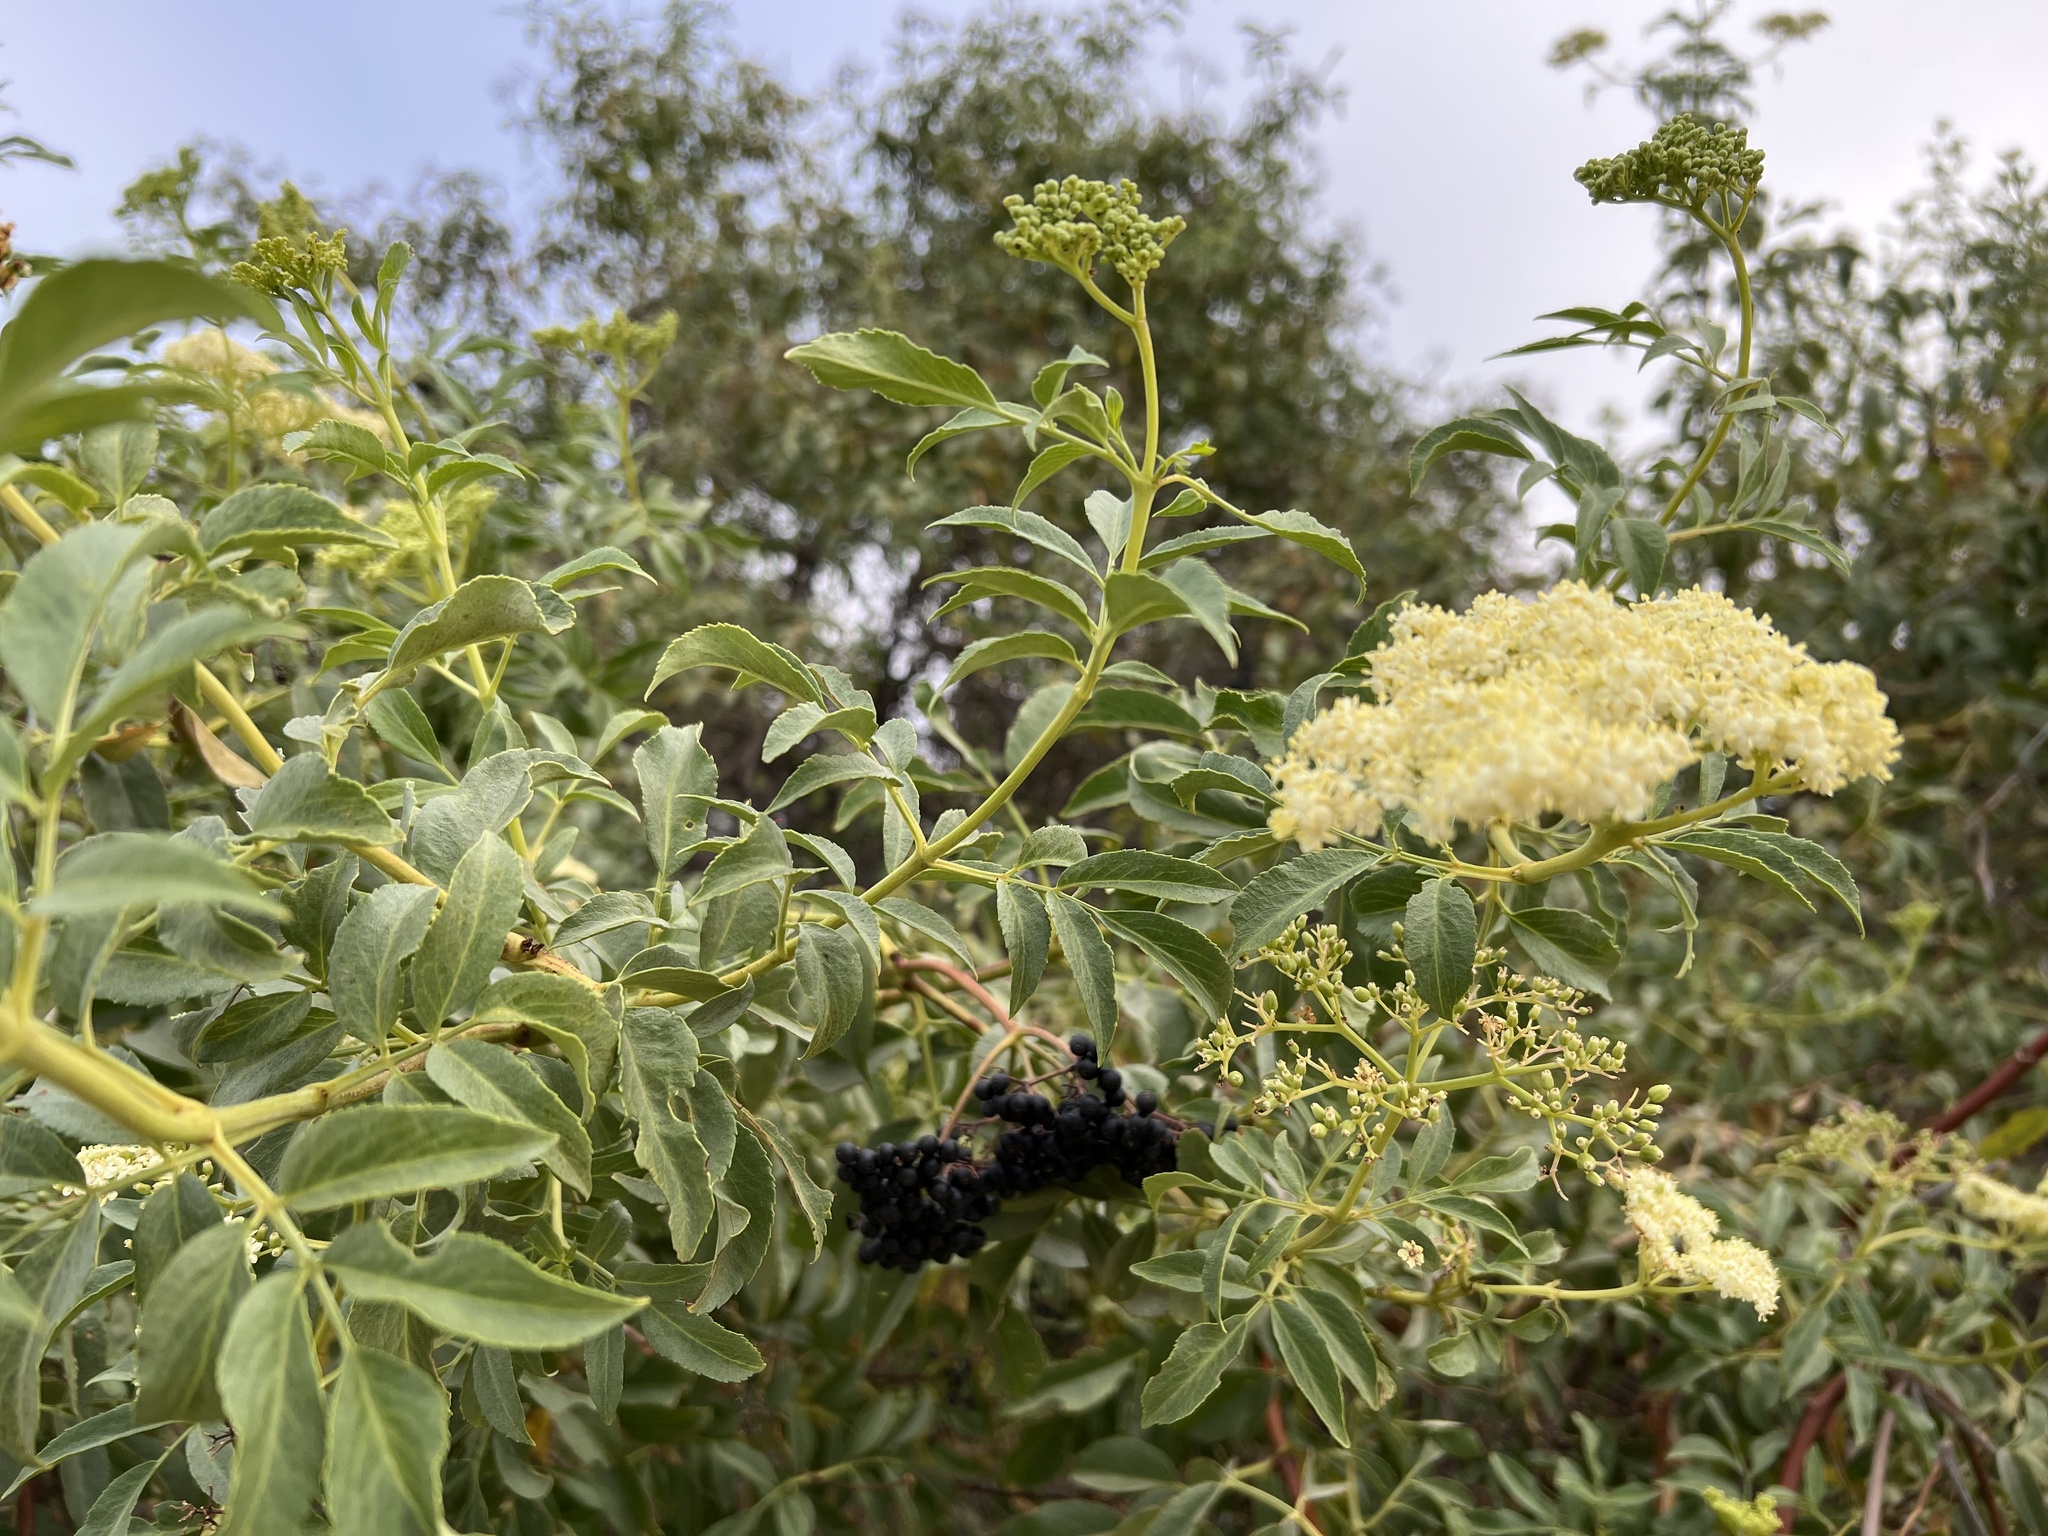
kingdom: Plantae
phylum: Tracheophyta
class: Magnoliopsida
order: Dipsacales
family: Viburnaceae
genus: Sambucus
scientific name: Sambucus cerulea
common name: Blue elder
